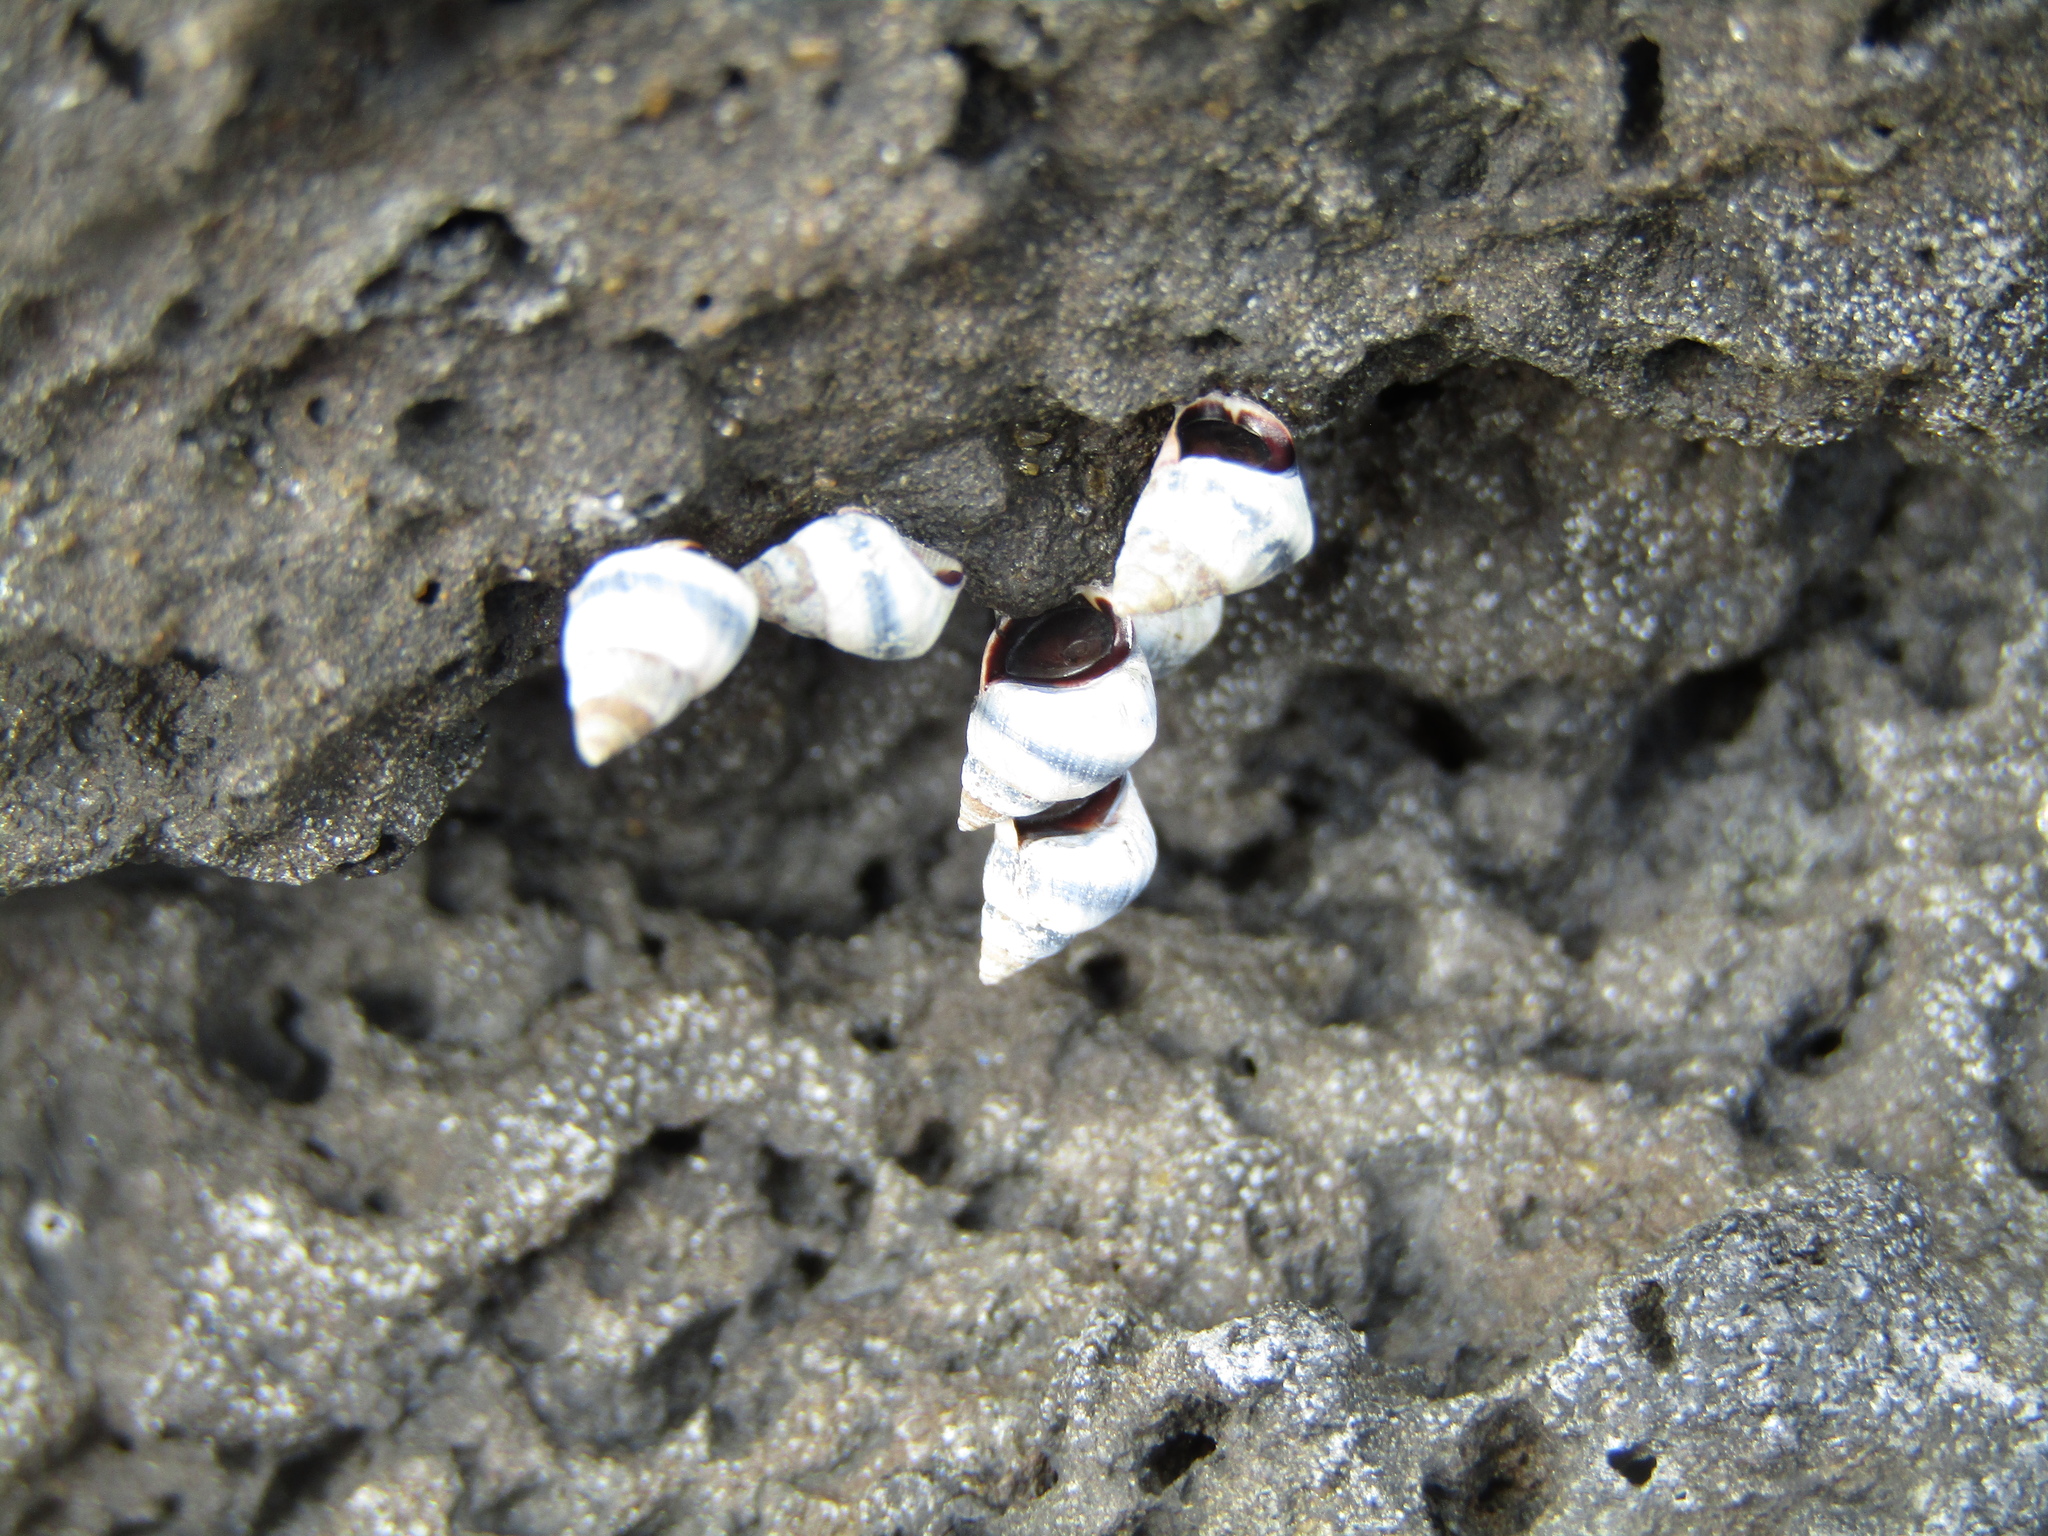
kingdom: Animalia
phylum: Mollusca
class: Gastropoda
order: Littorinimorpha
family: Littorinidae
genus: Austrolittorina
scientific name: Austrolittorina antipodum
